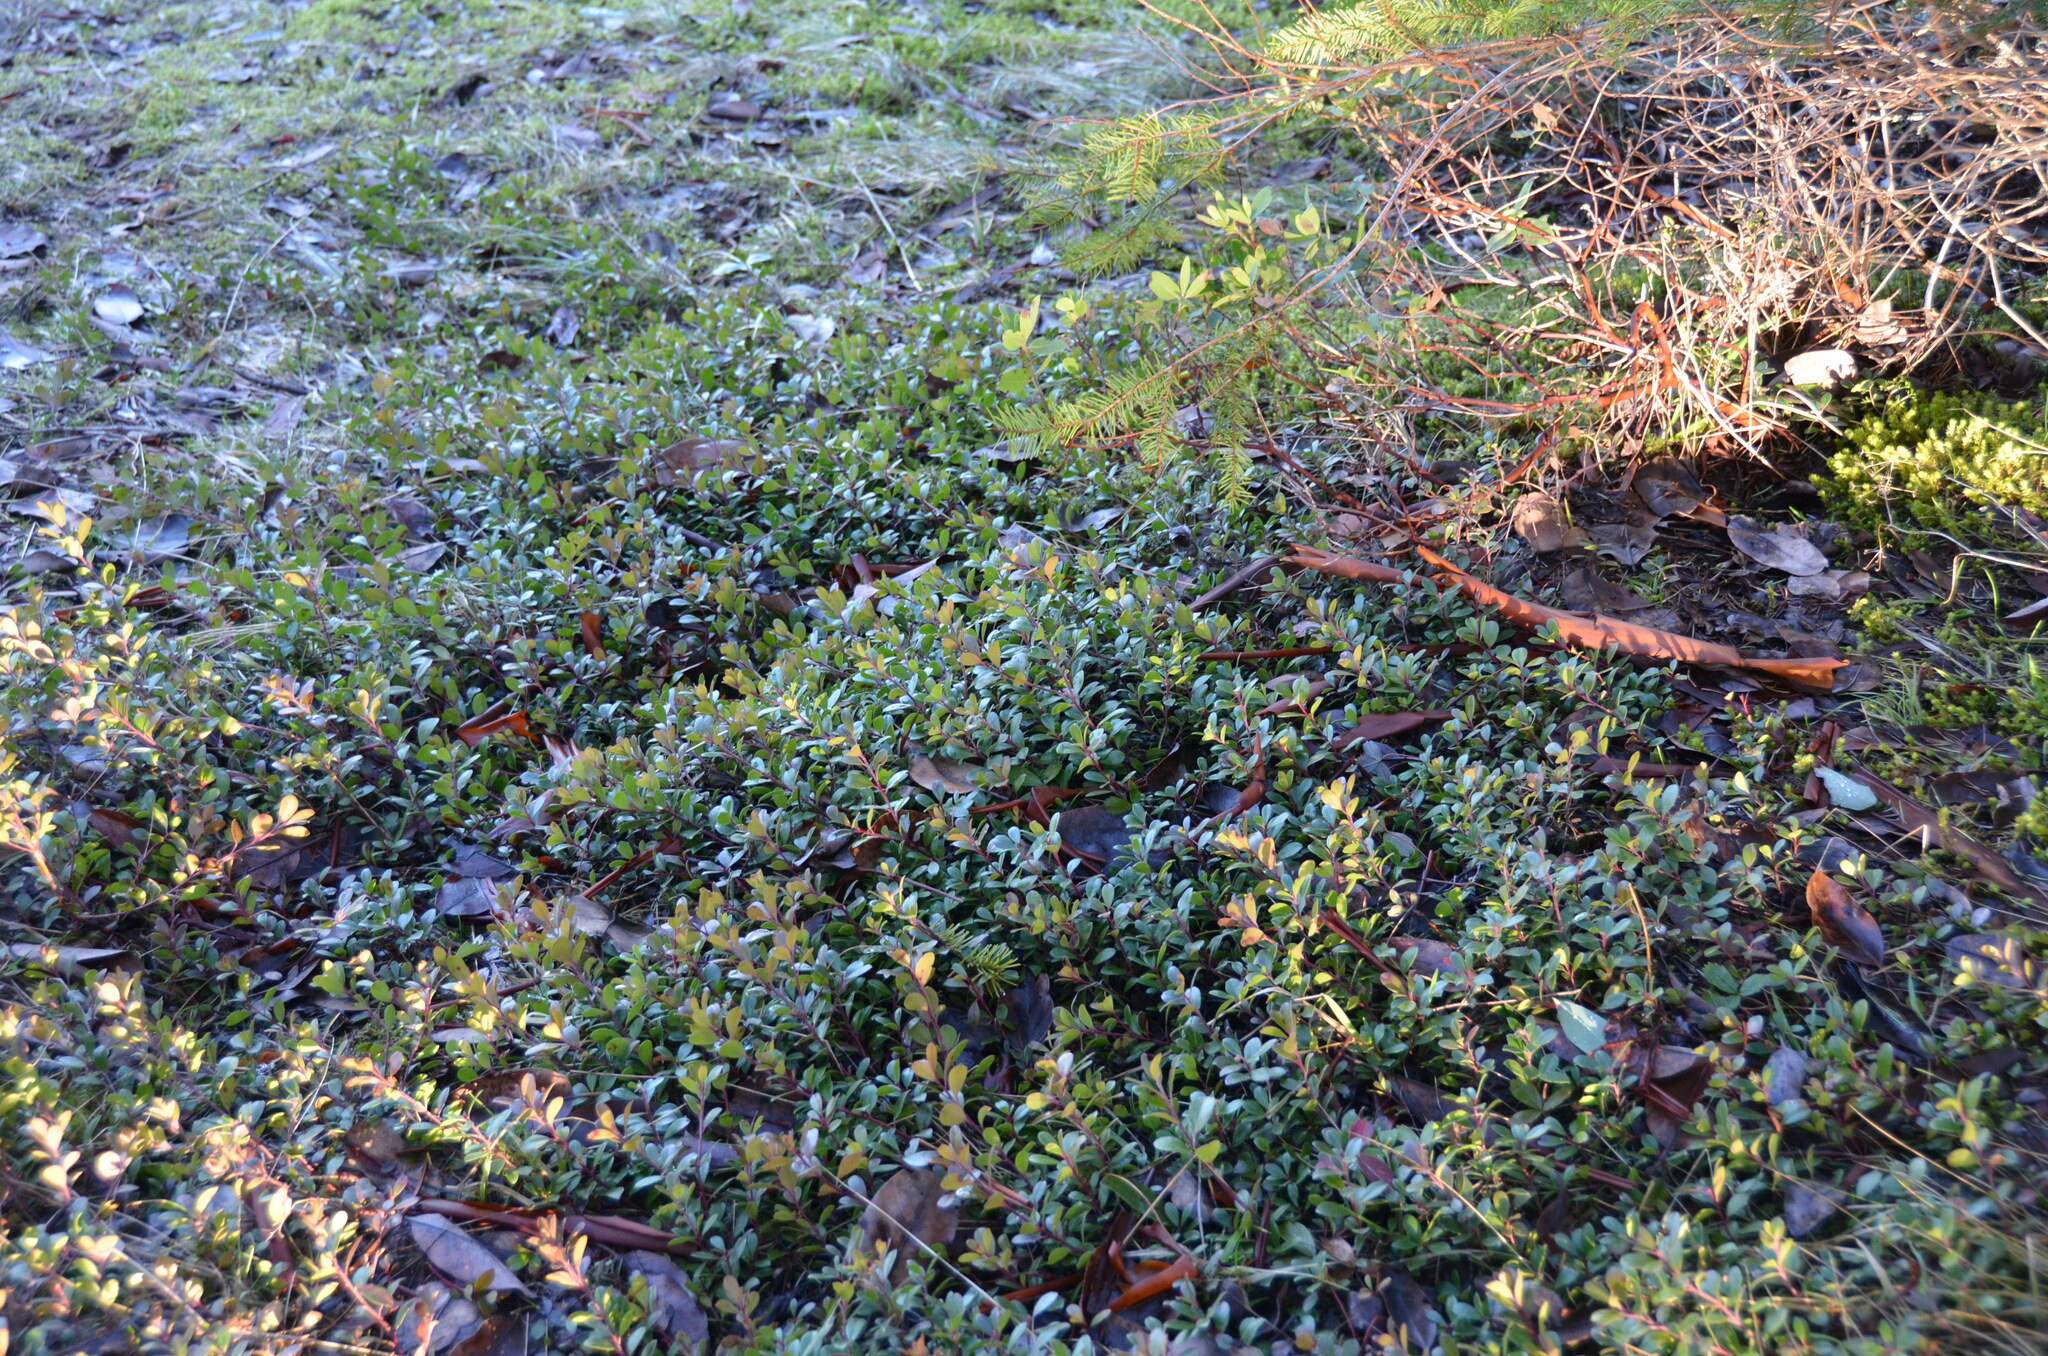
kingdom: Plantae
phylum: Tracheophyta
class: Magnoliopsida
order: Ericales
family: Ericaceae
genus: Arctostaphylos
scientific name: Arctostaphylos uva-ursi
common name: Bearberry
